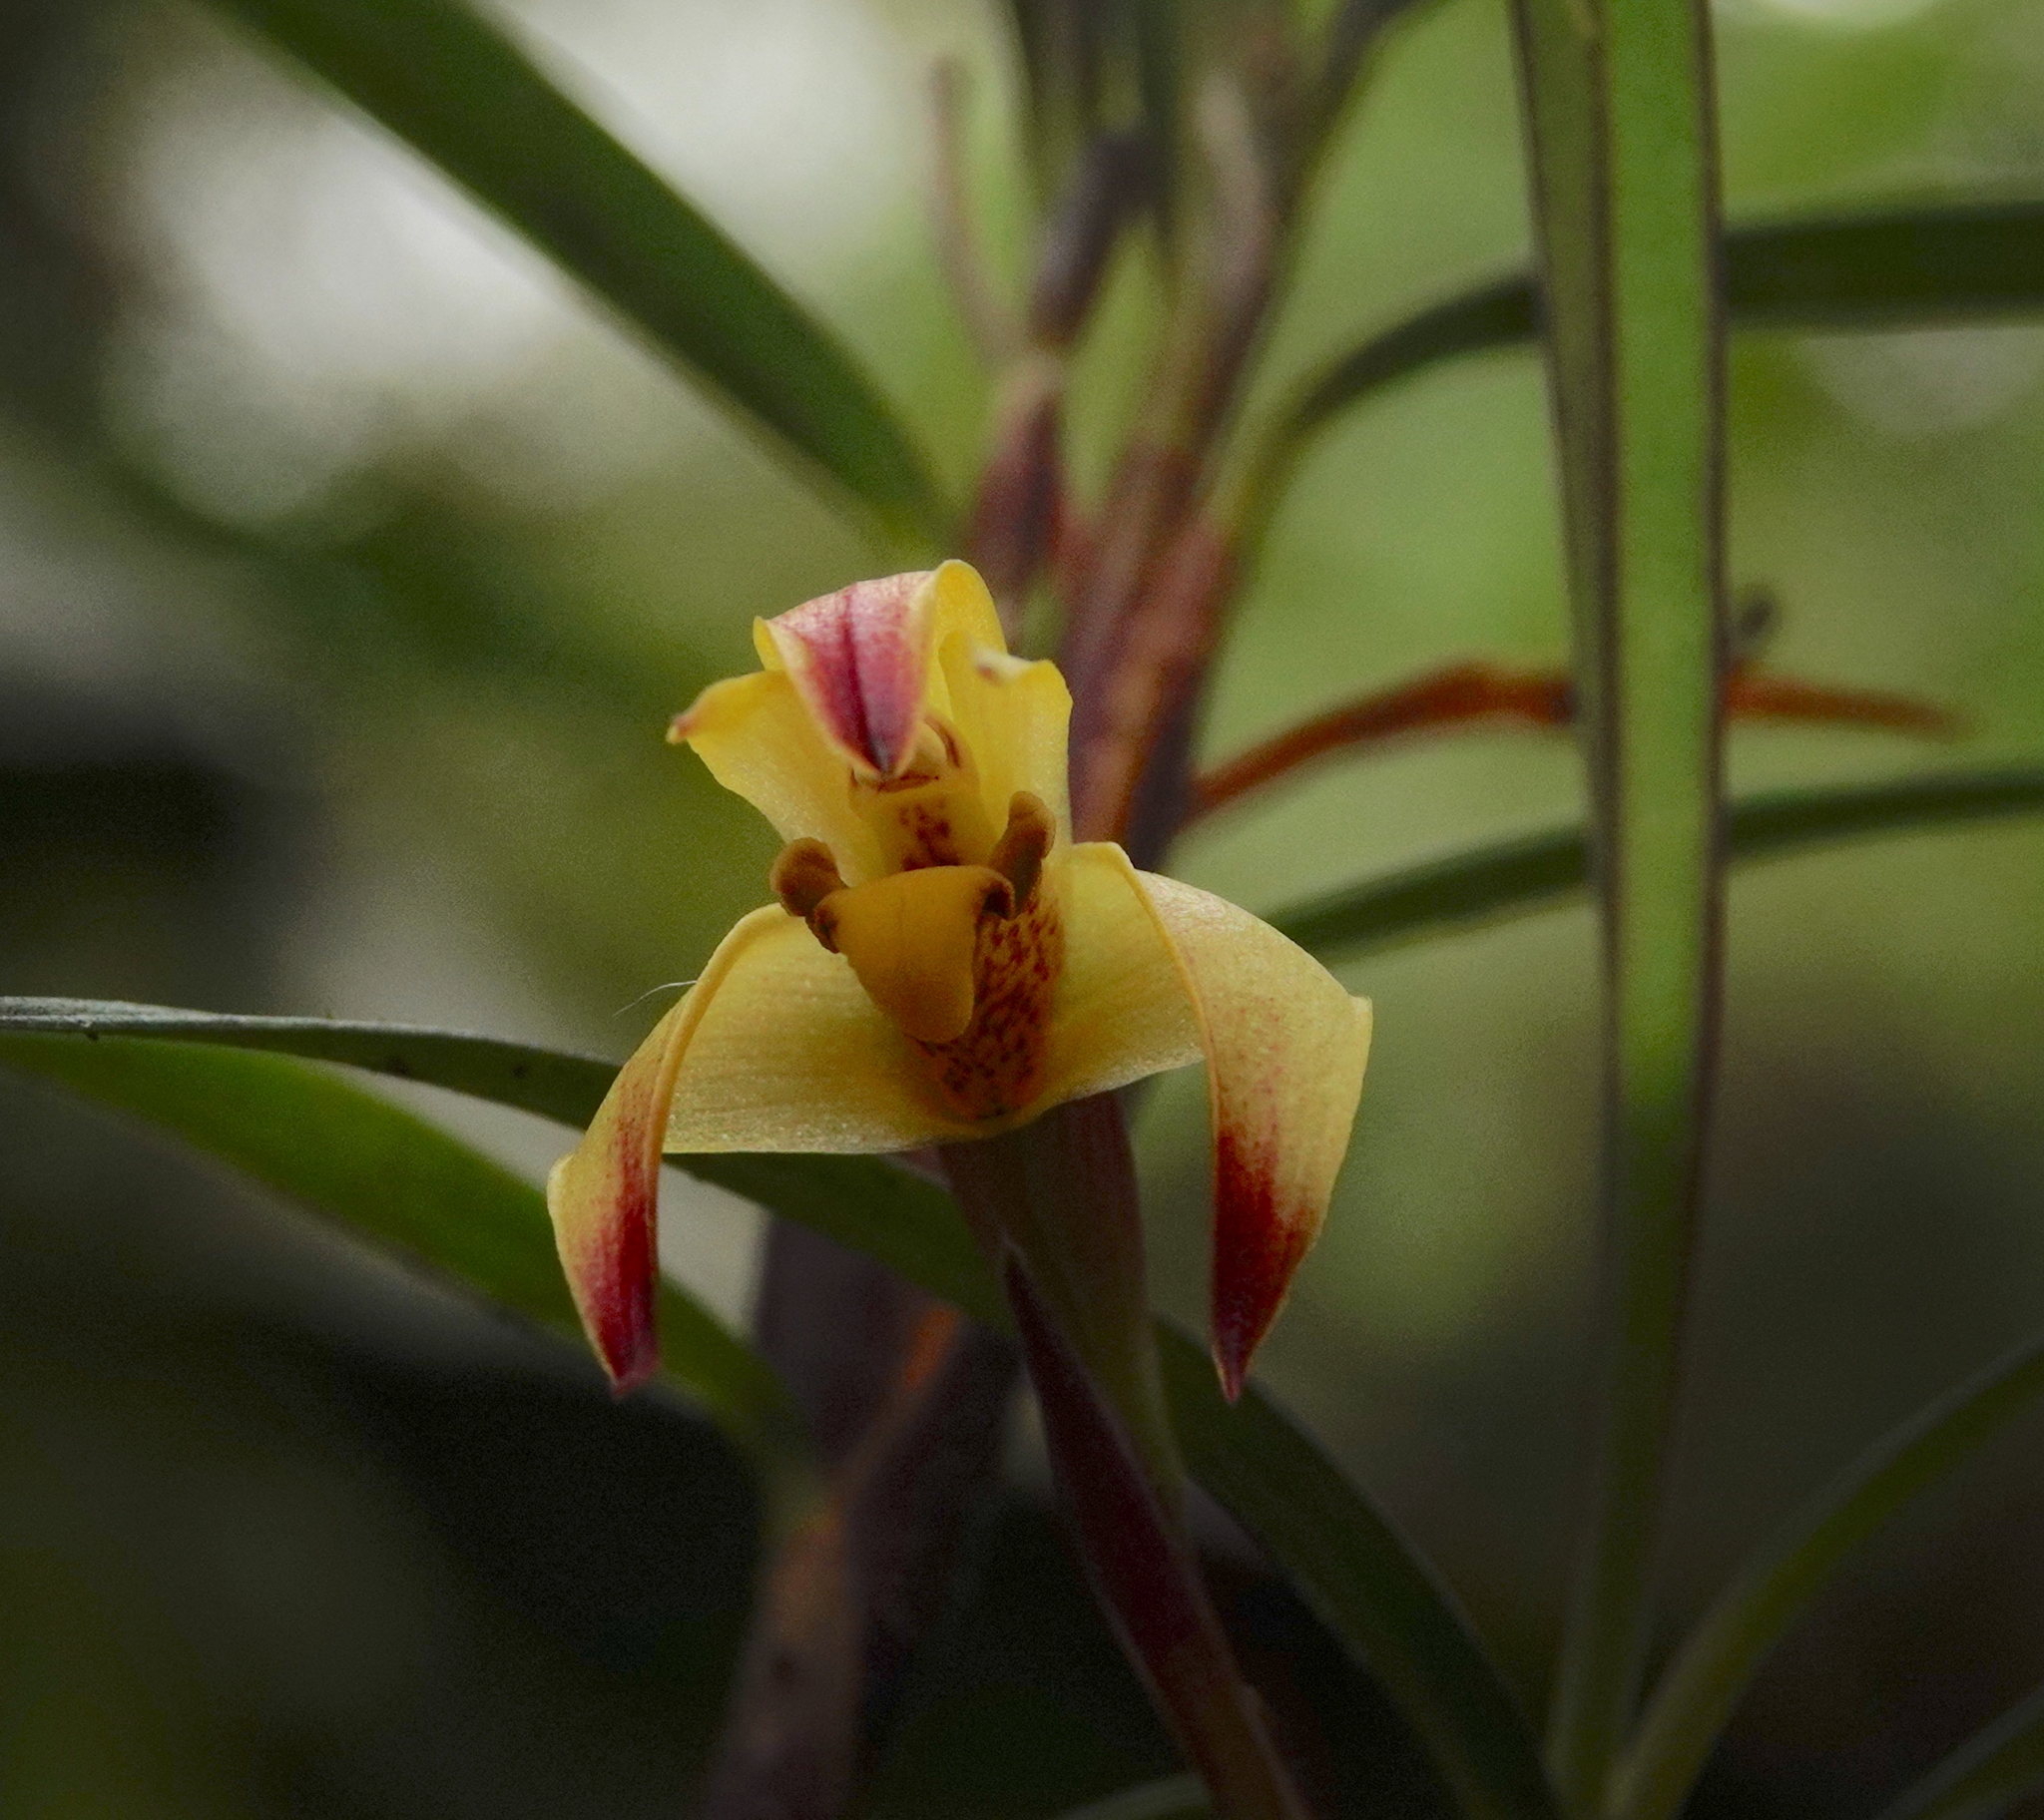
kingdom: Plantae
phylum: Tracheophyta
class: Liliopsida
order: Asparagales
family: Orchidaceae
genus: Maxillaria
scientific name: Maxillaria meridensis
